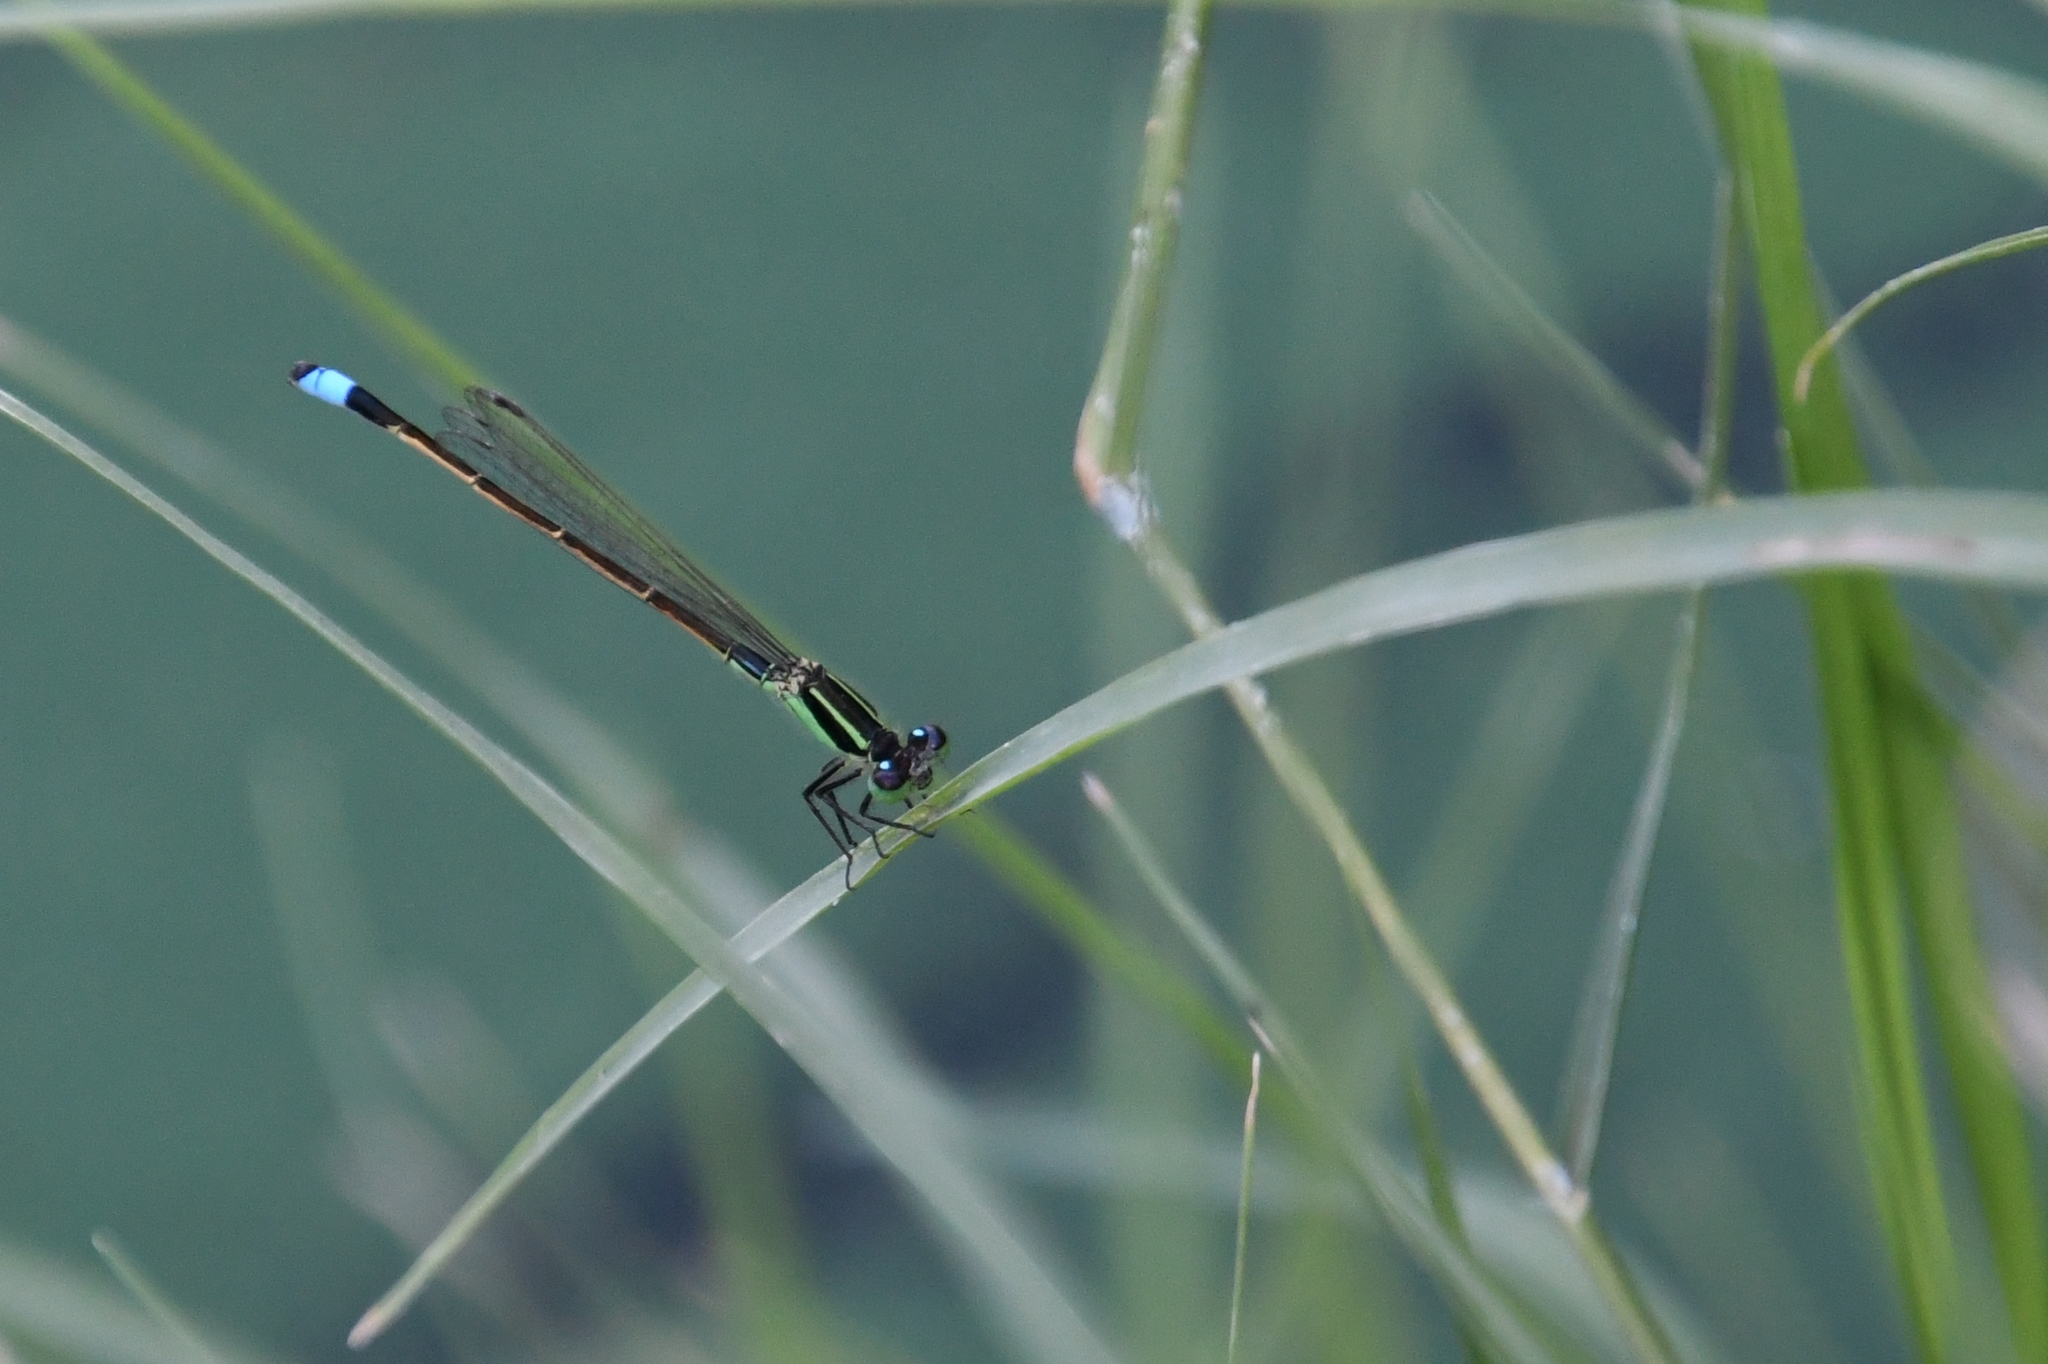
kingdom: Animalia
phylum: Arthropoda
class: Insecta
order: Odonata
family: Coenagrionidae
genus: Ischnura
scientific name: Ischnura ramburii
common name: Rambur's forktail
